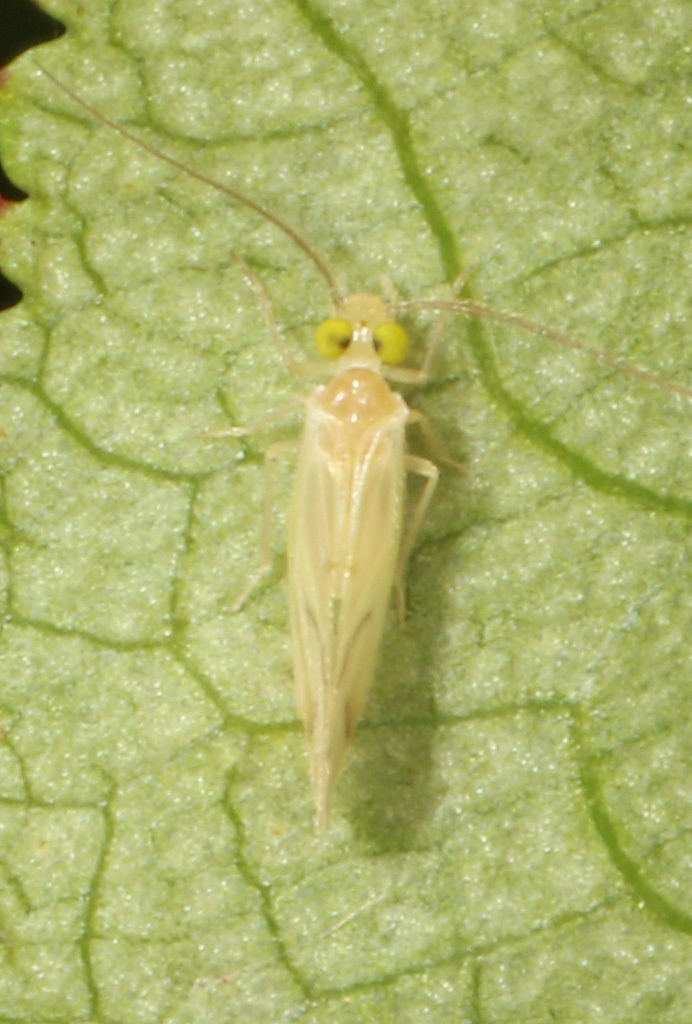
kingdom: Animalia
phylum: Arthropoda
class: Insecta
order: Psocodea
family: Paracaeciliidae
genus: Xanthocaecilius
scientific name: Xanthocaecilius sommermanae
